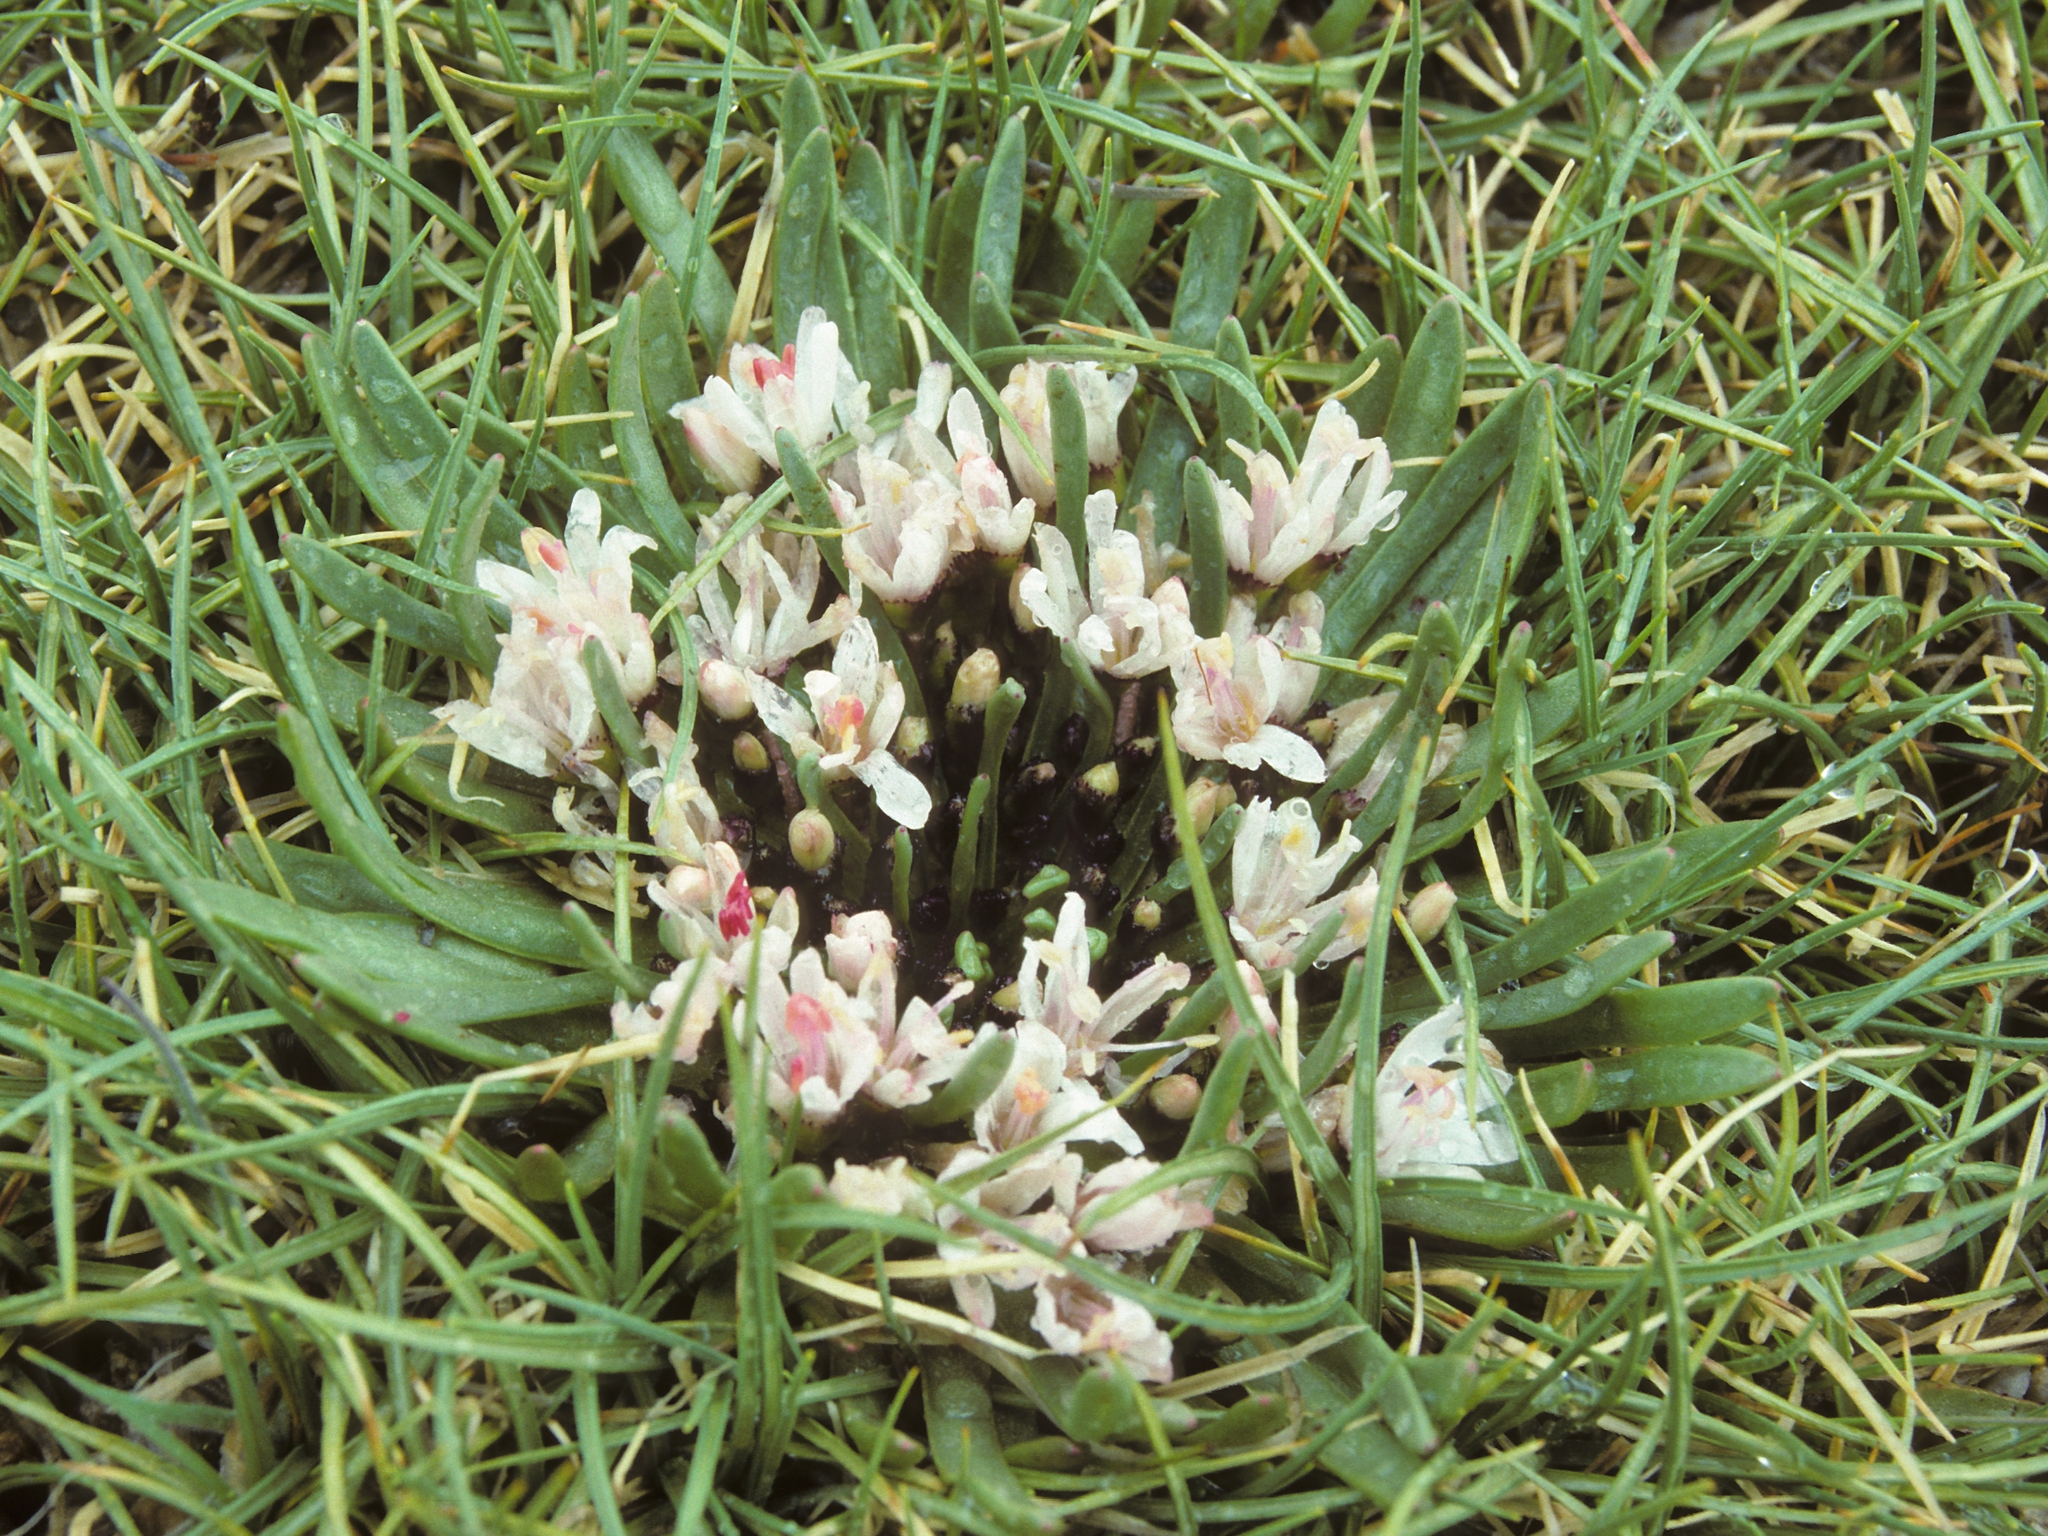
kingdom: Plantae
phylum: Tracheophyta
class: Magnoliopsida
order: Caryophyllales
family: Montiaceae
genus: Lewisia
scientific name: Lewisia glandulosa
